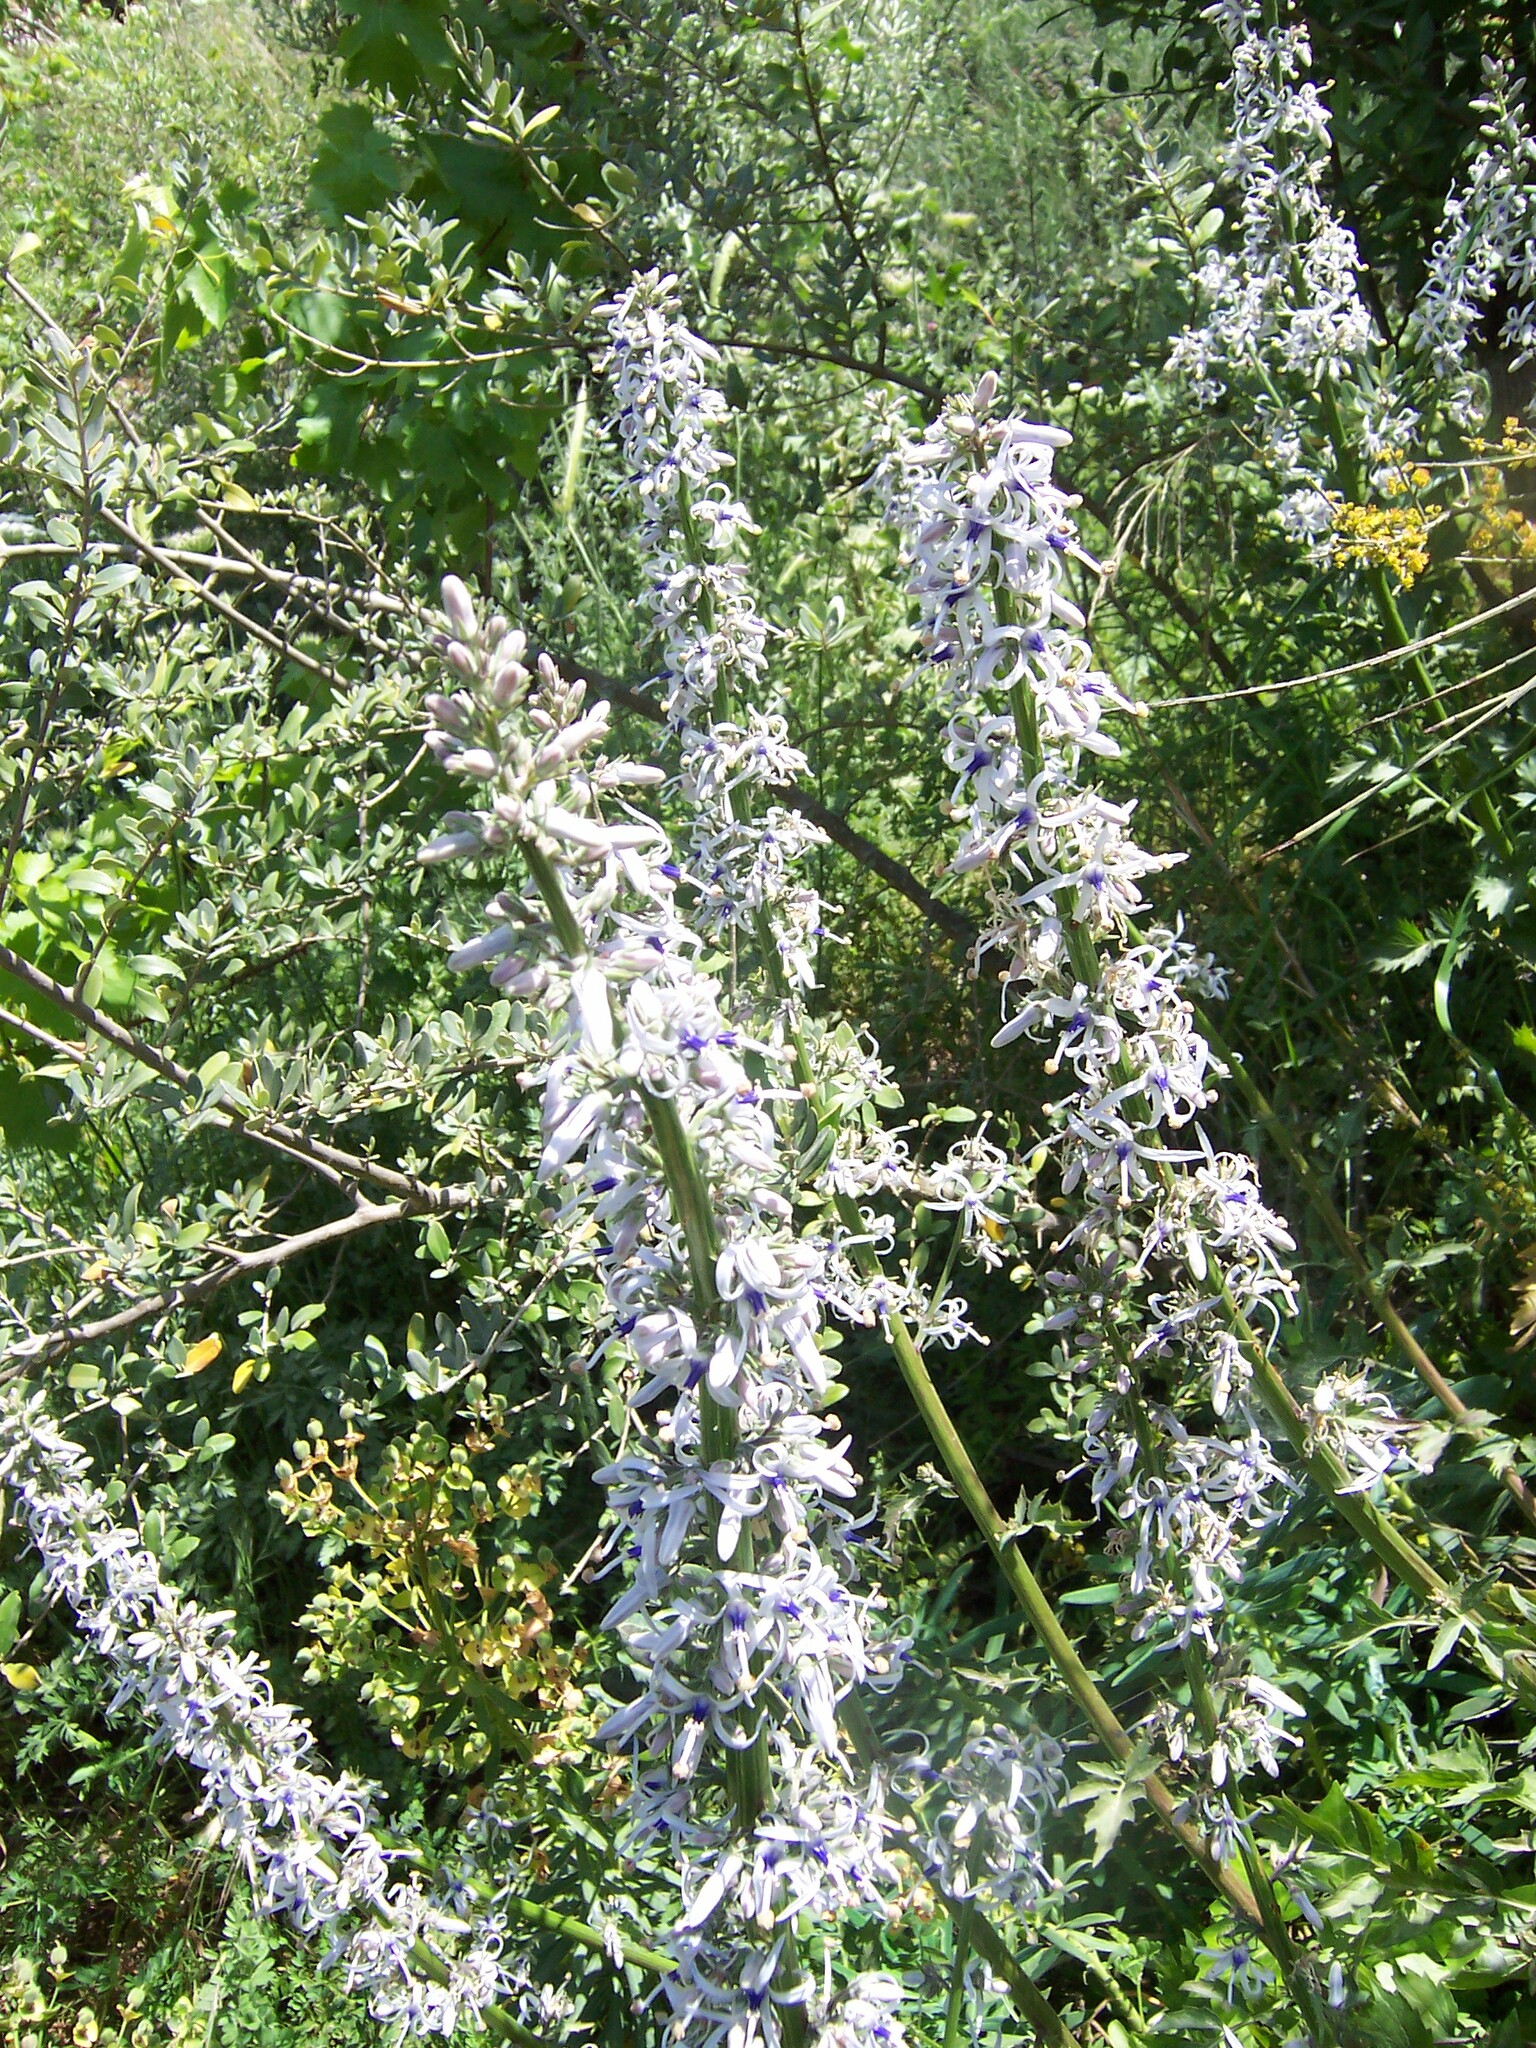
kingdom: Plantae
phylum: Tracheophyta
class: Magnoliopsida
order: Asterales
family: Campanulaceae
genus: Petromarula
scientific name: Petromarula pinnata
